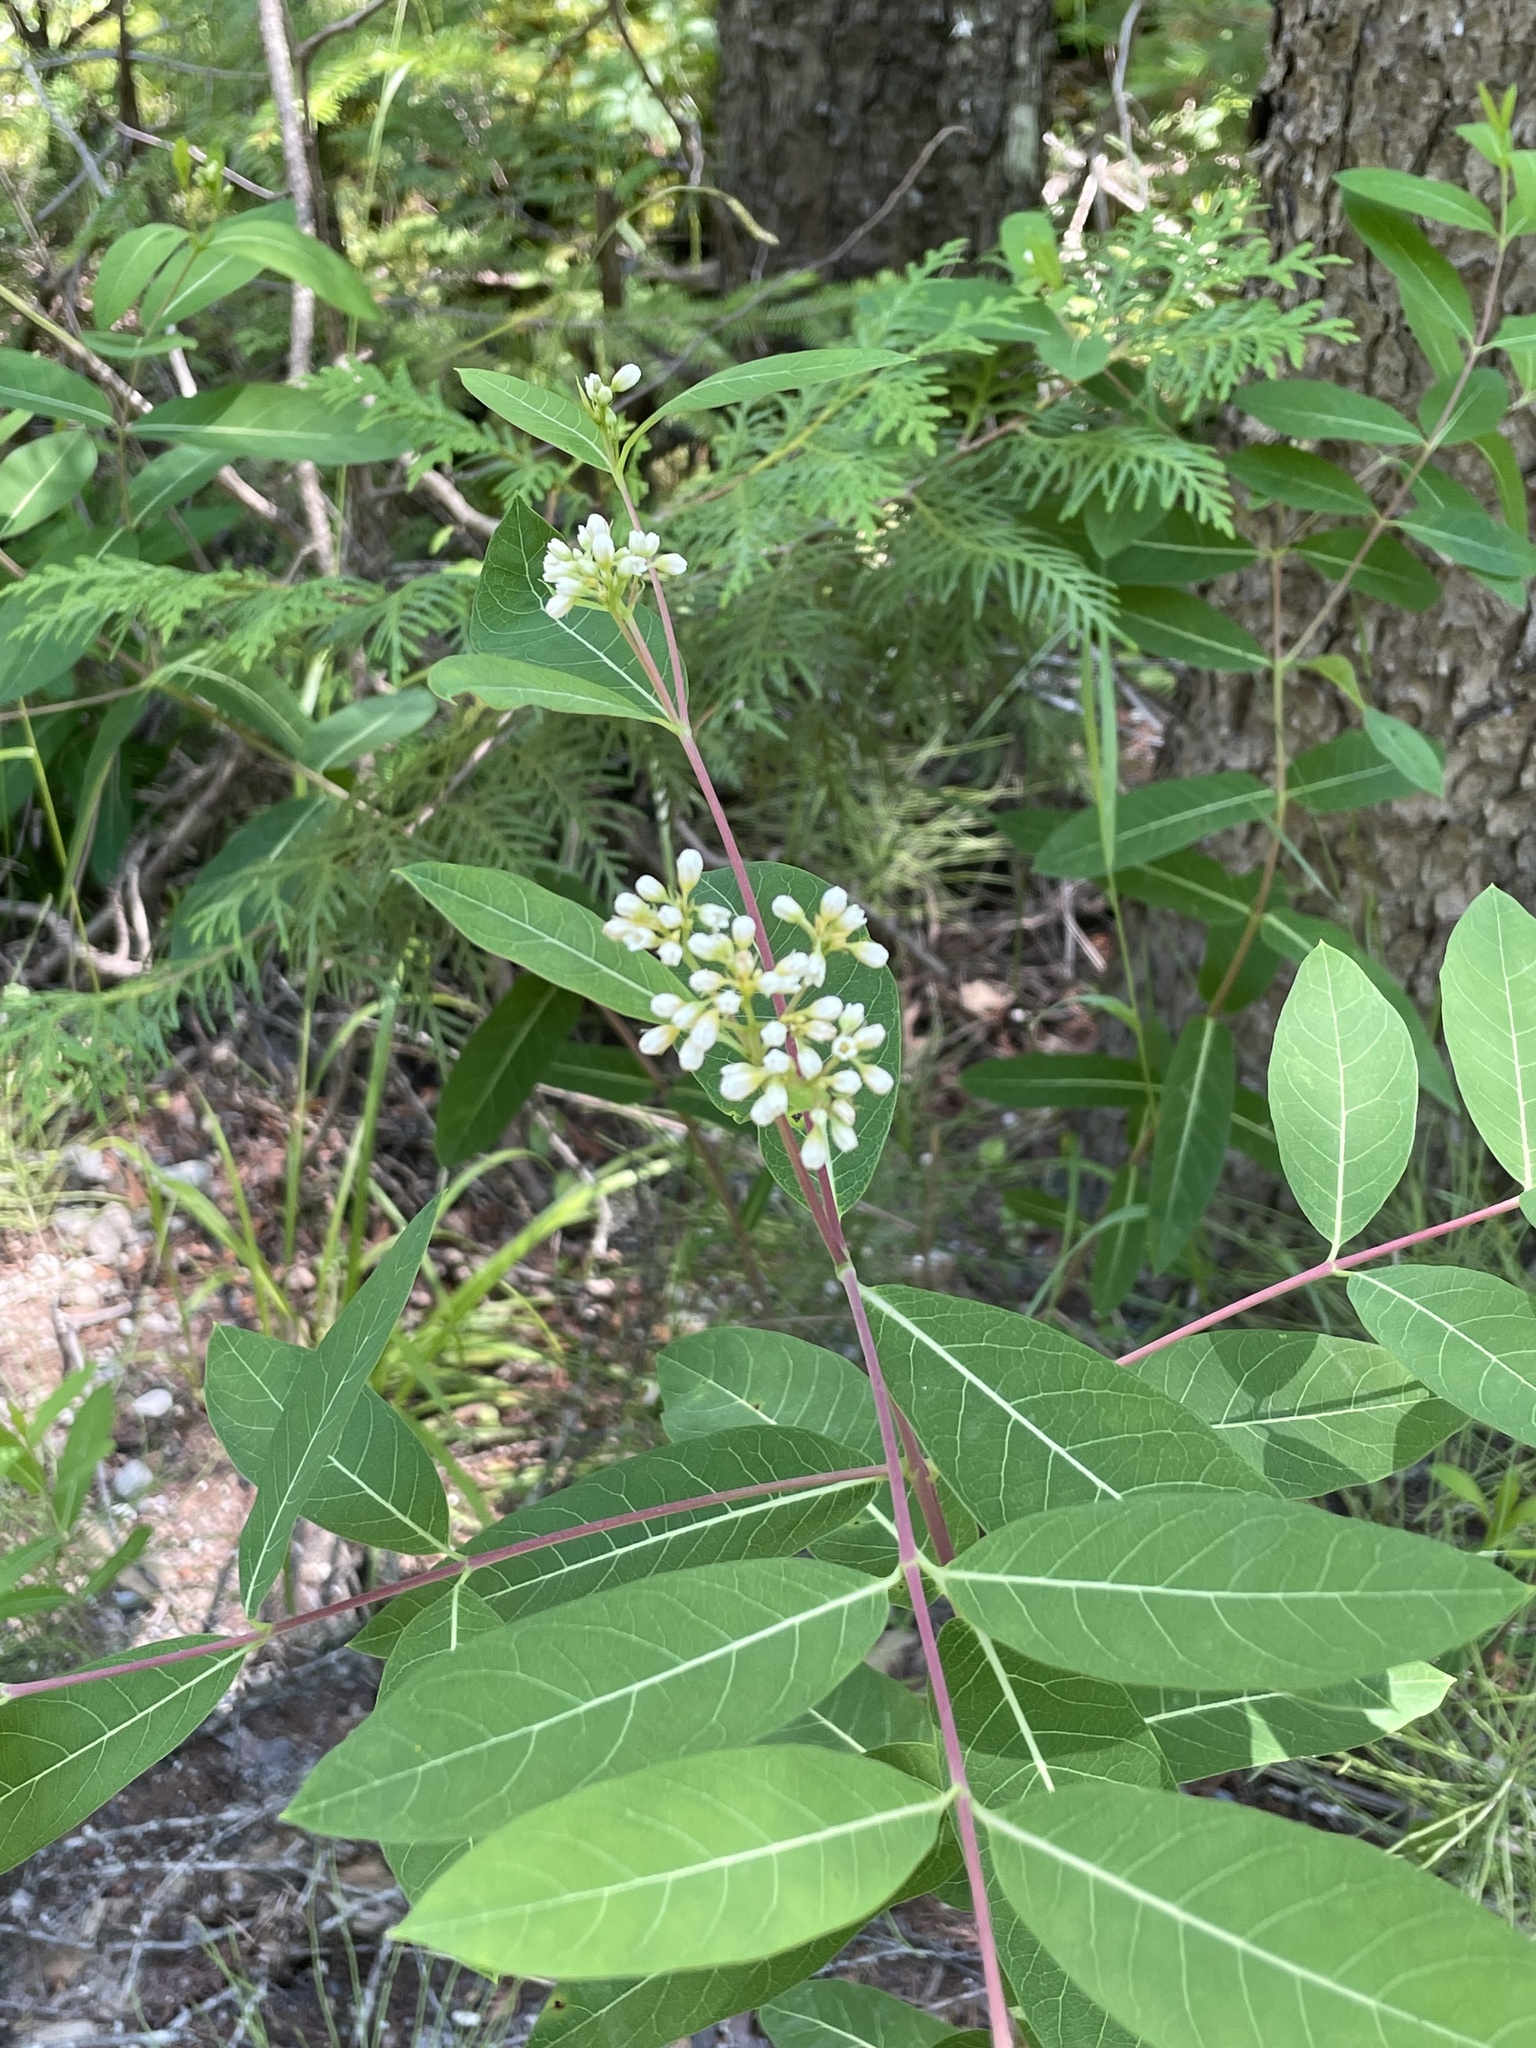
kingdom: Plantae
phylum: Tracheophyta
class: Magnoliopsida
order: Gentianales
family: Apocynaceae
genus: Apocynum
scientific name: Apocynum cannabinum
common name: Hemp dogbane
